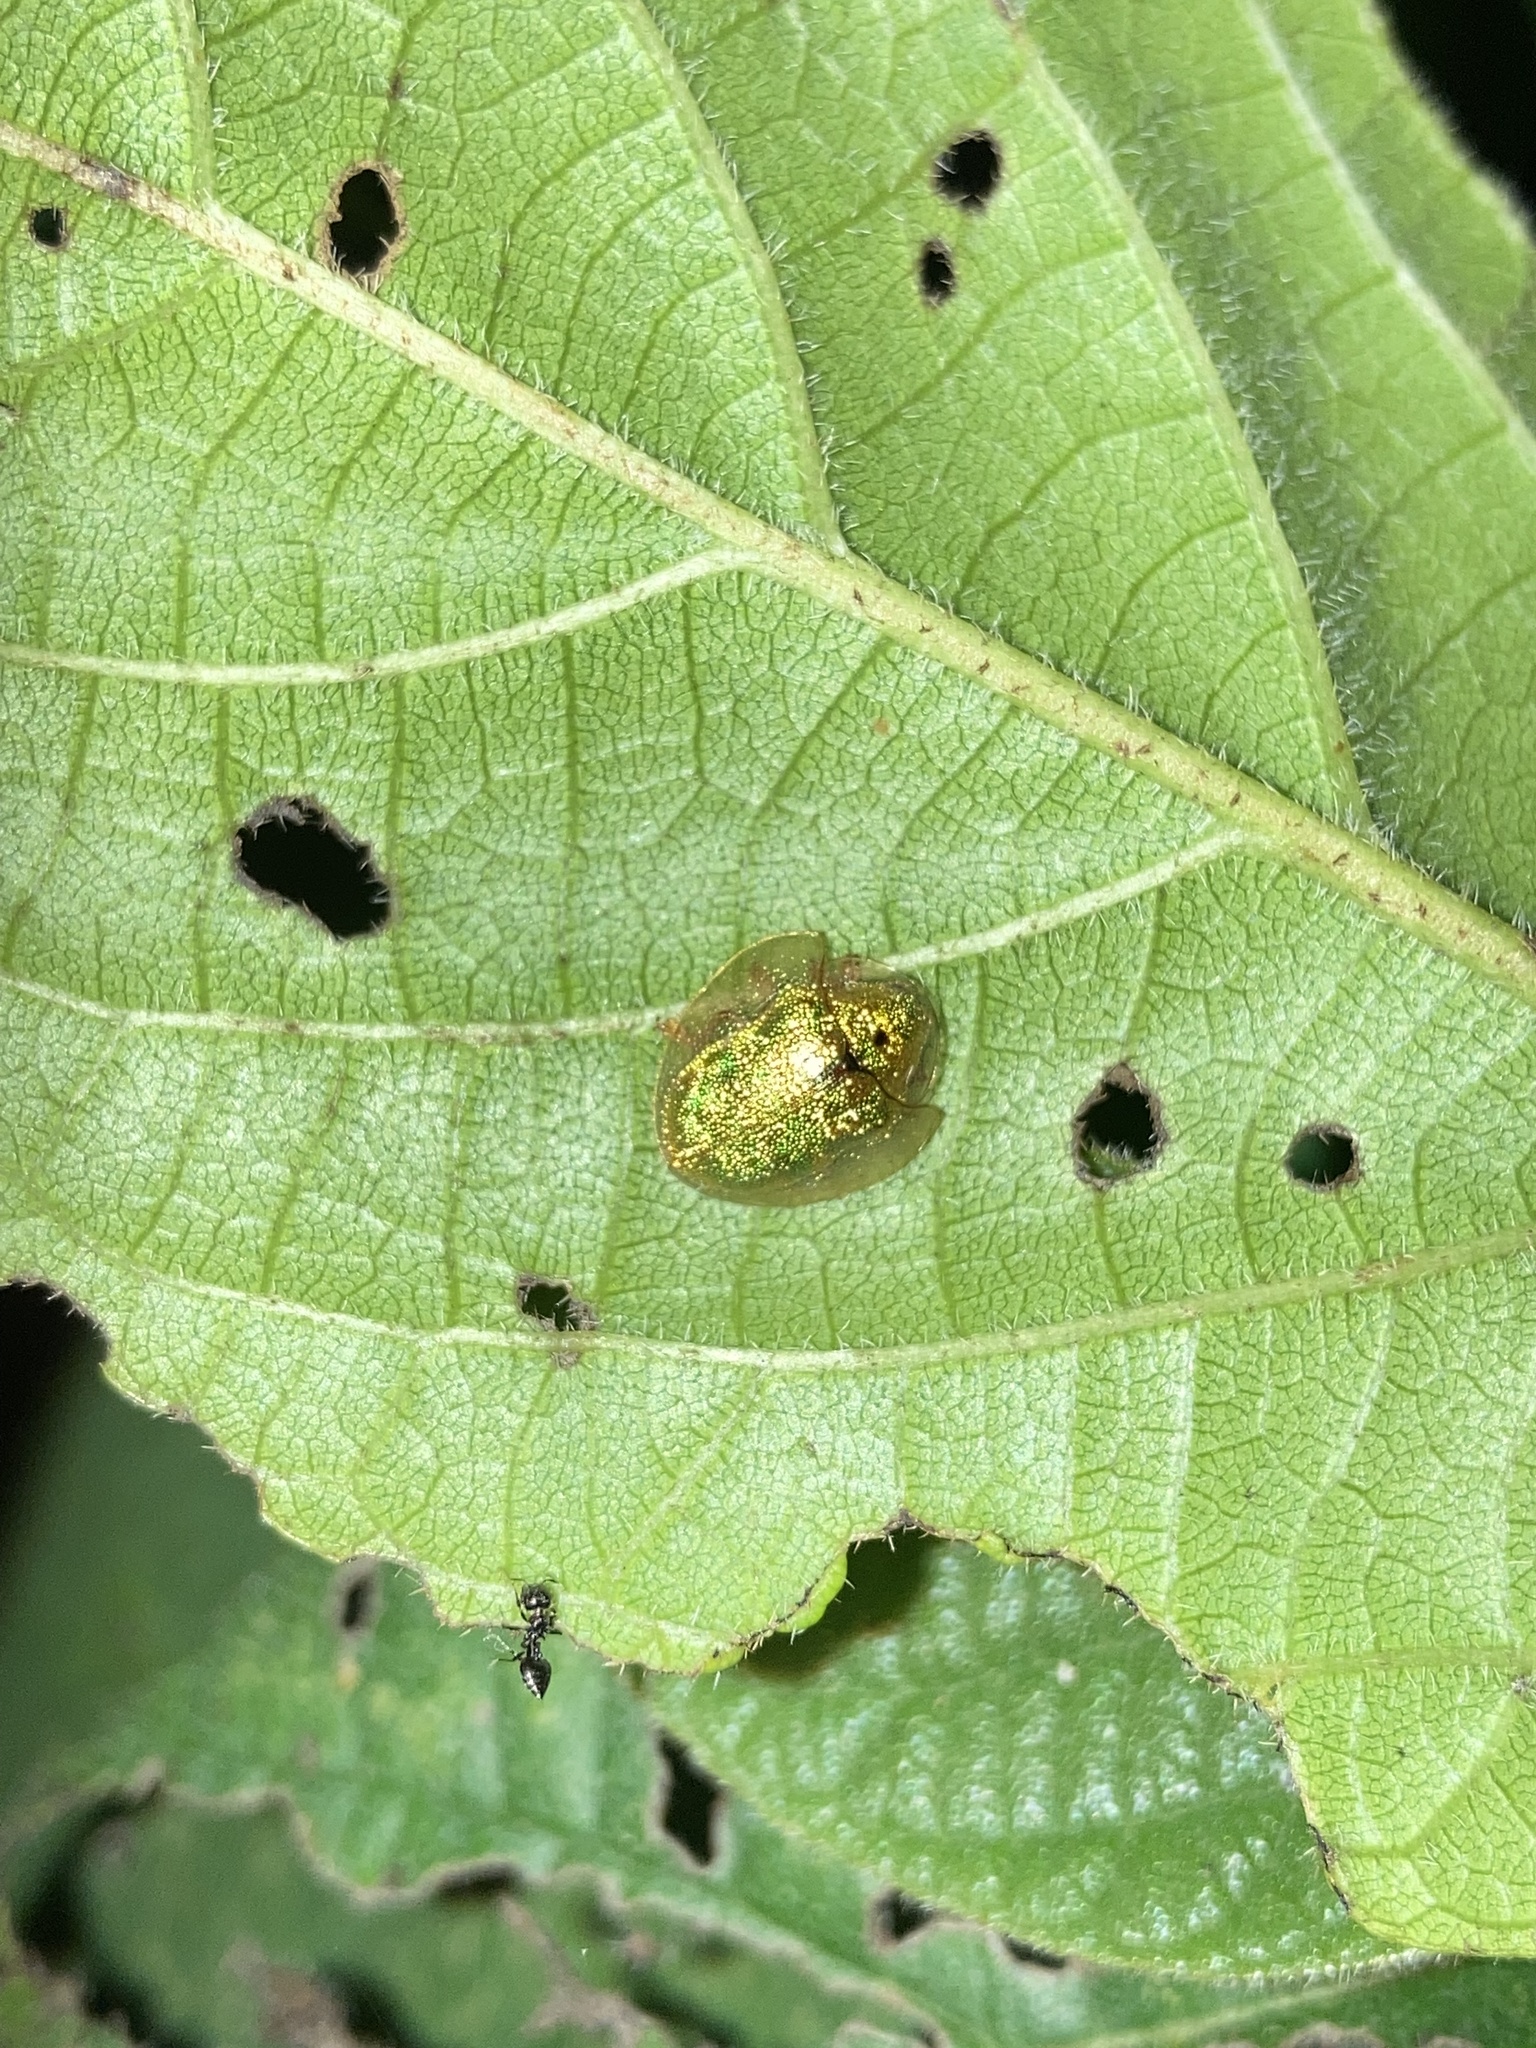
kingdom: Animalia
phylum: Arthropoda
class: Insecta
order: Coleoptera
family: Chrysomelidae
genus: Eurypepla
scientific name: Eurypepla calochroma
